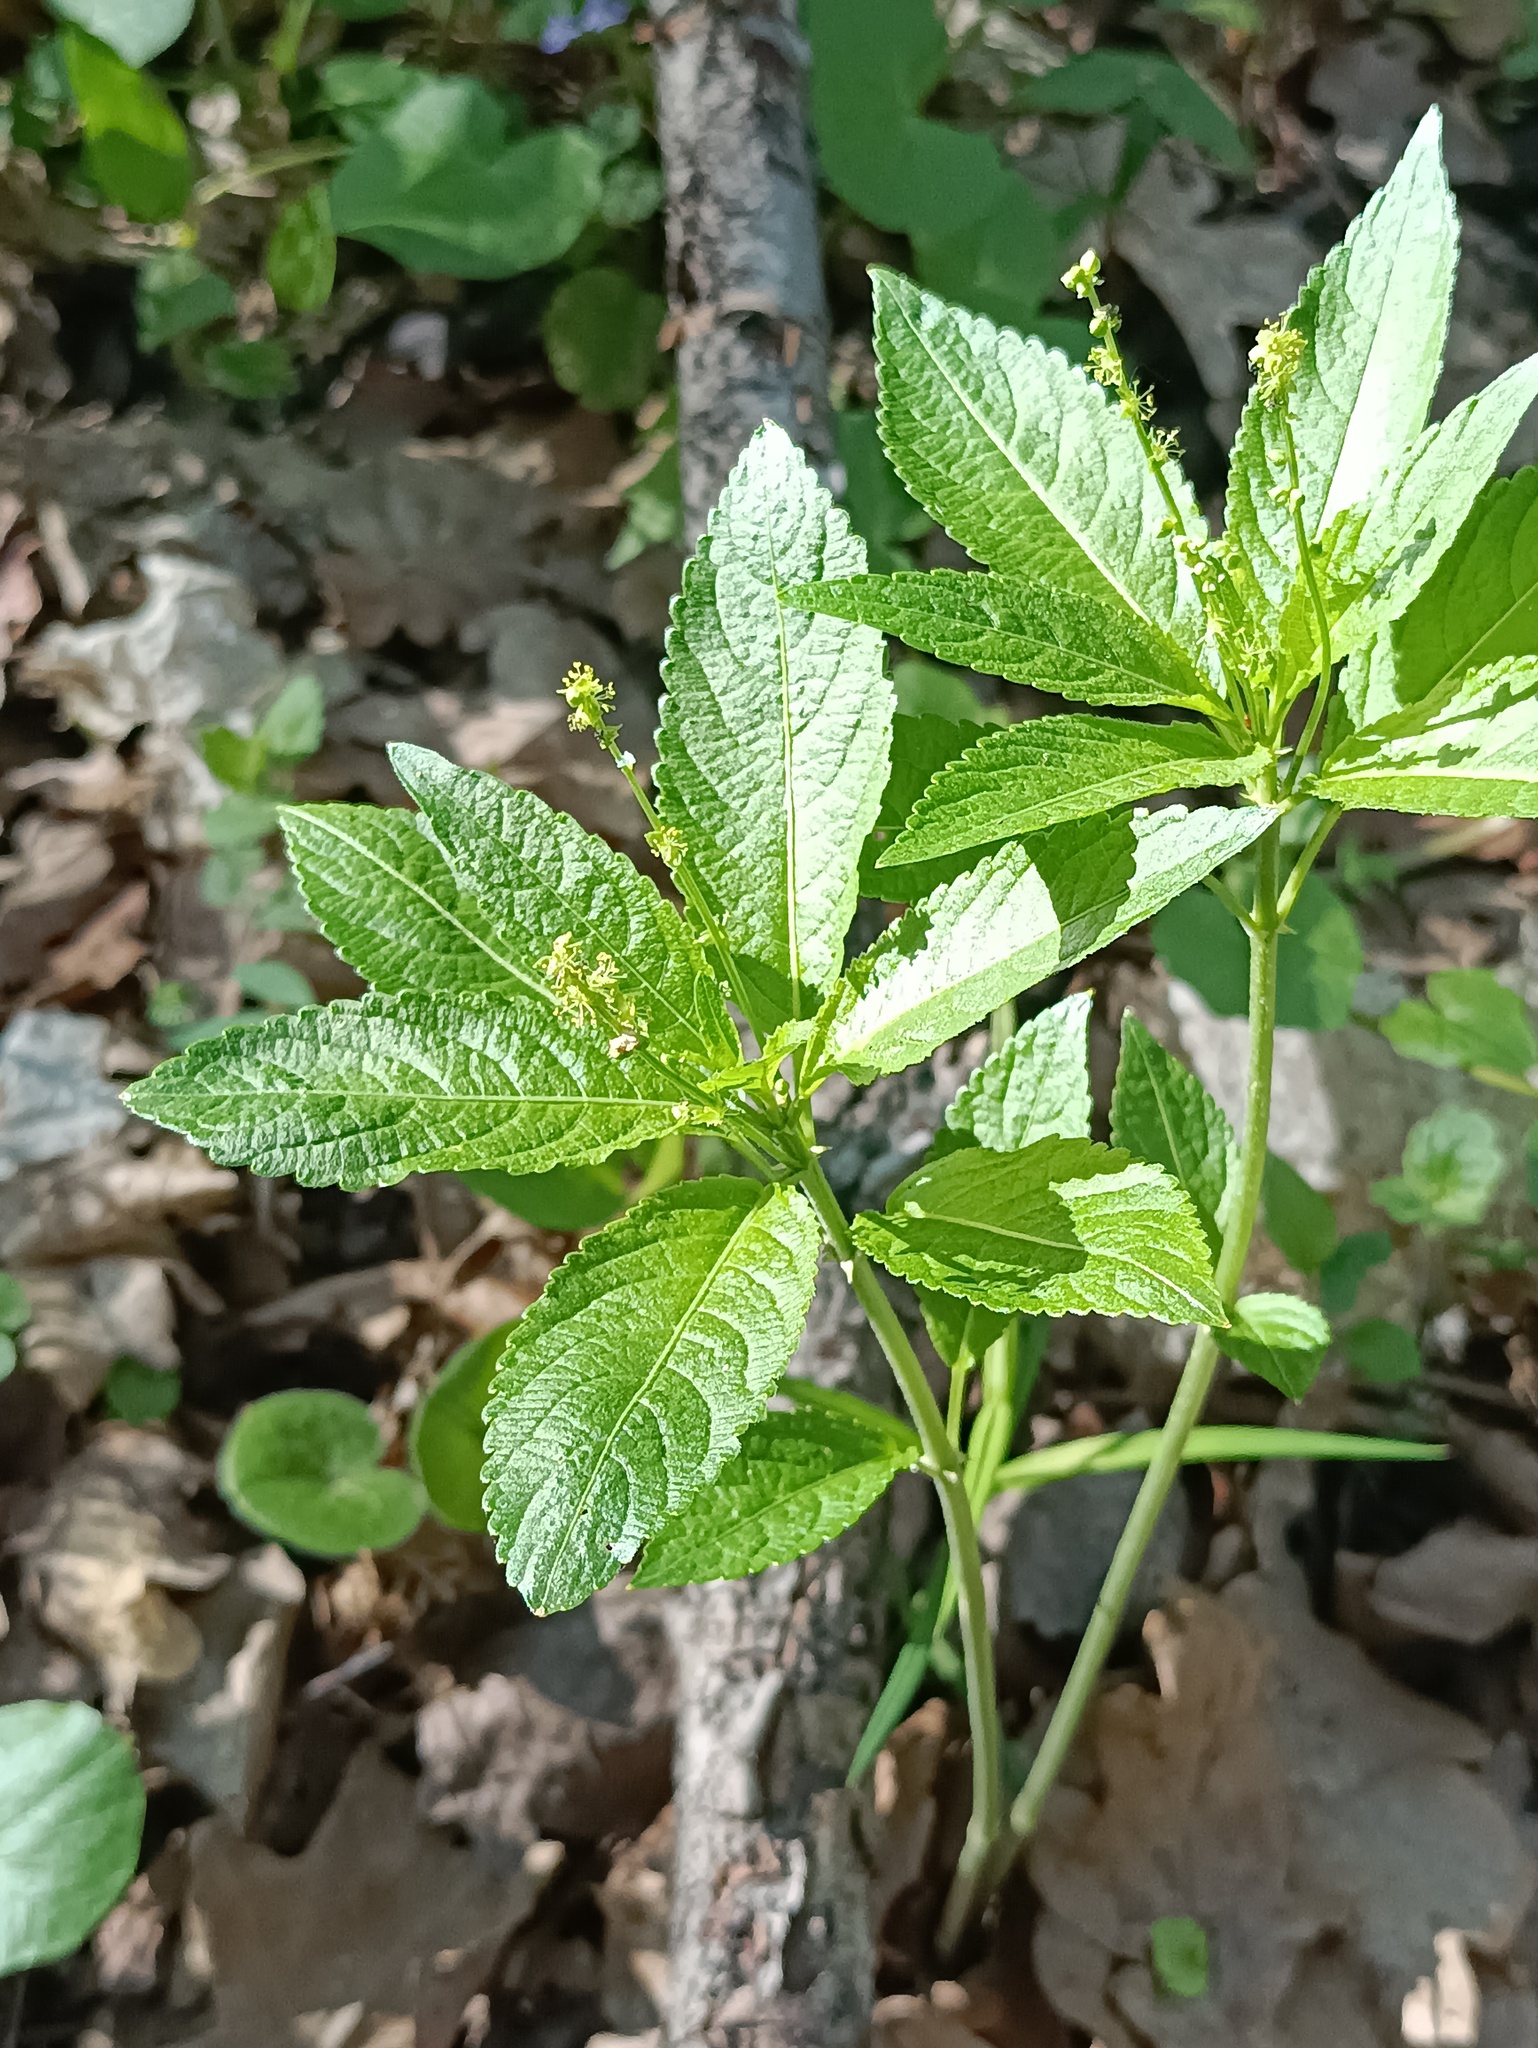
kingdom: Plantae
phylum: Tracheophyta
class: Magnoliopsida
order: Malpighiales
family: Euphorbiaceae
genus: Mercurialis
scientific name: Mercurialis perennis
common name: Dog mercury
